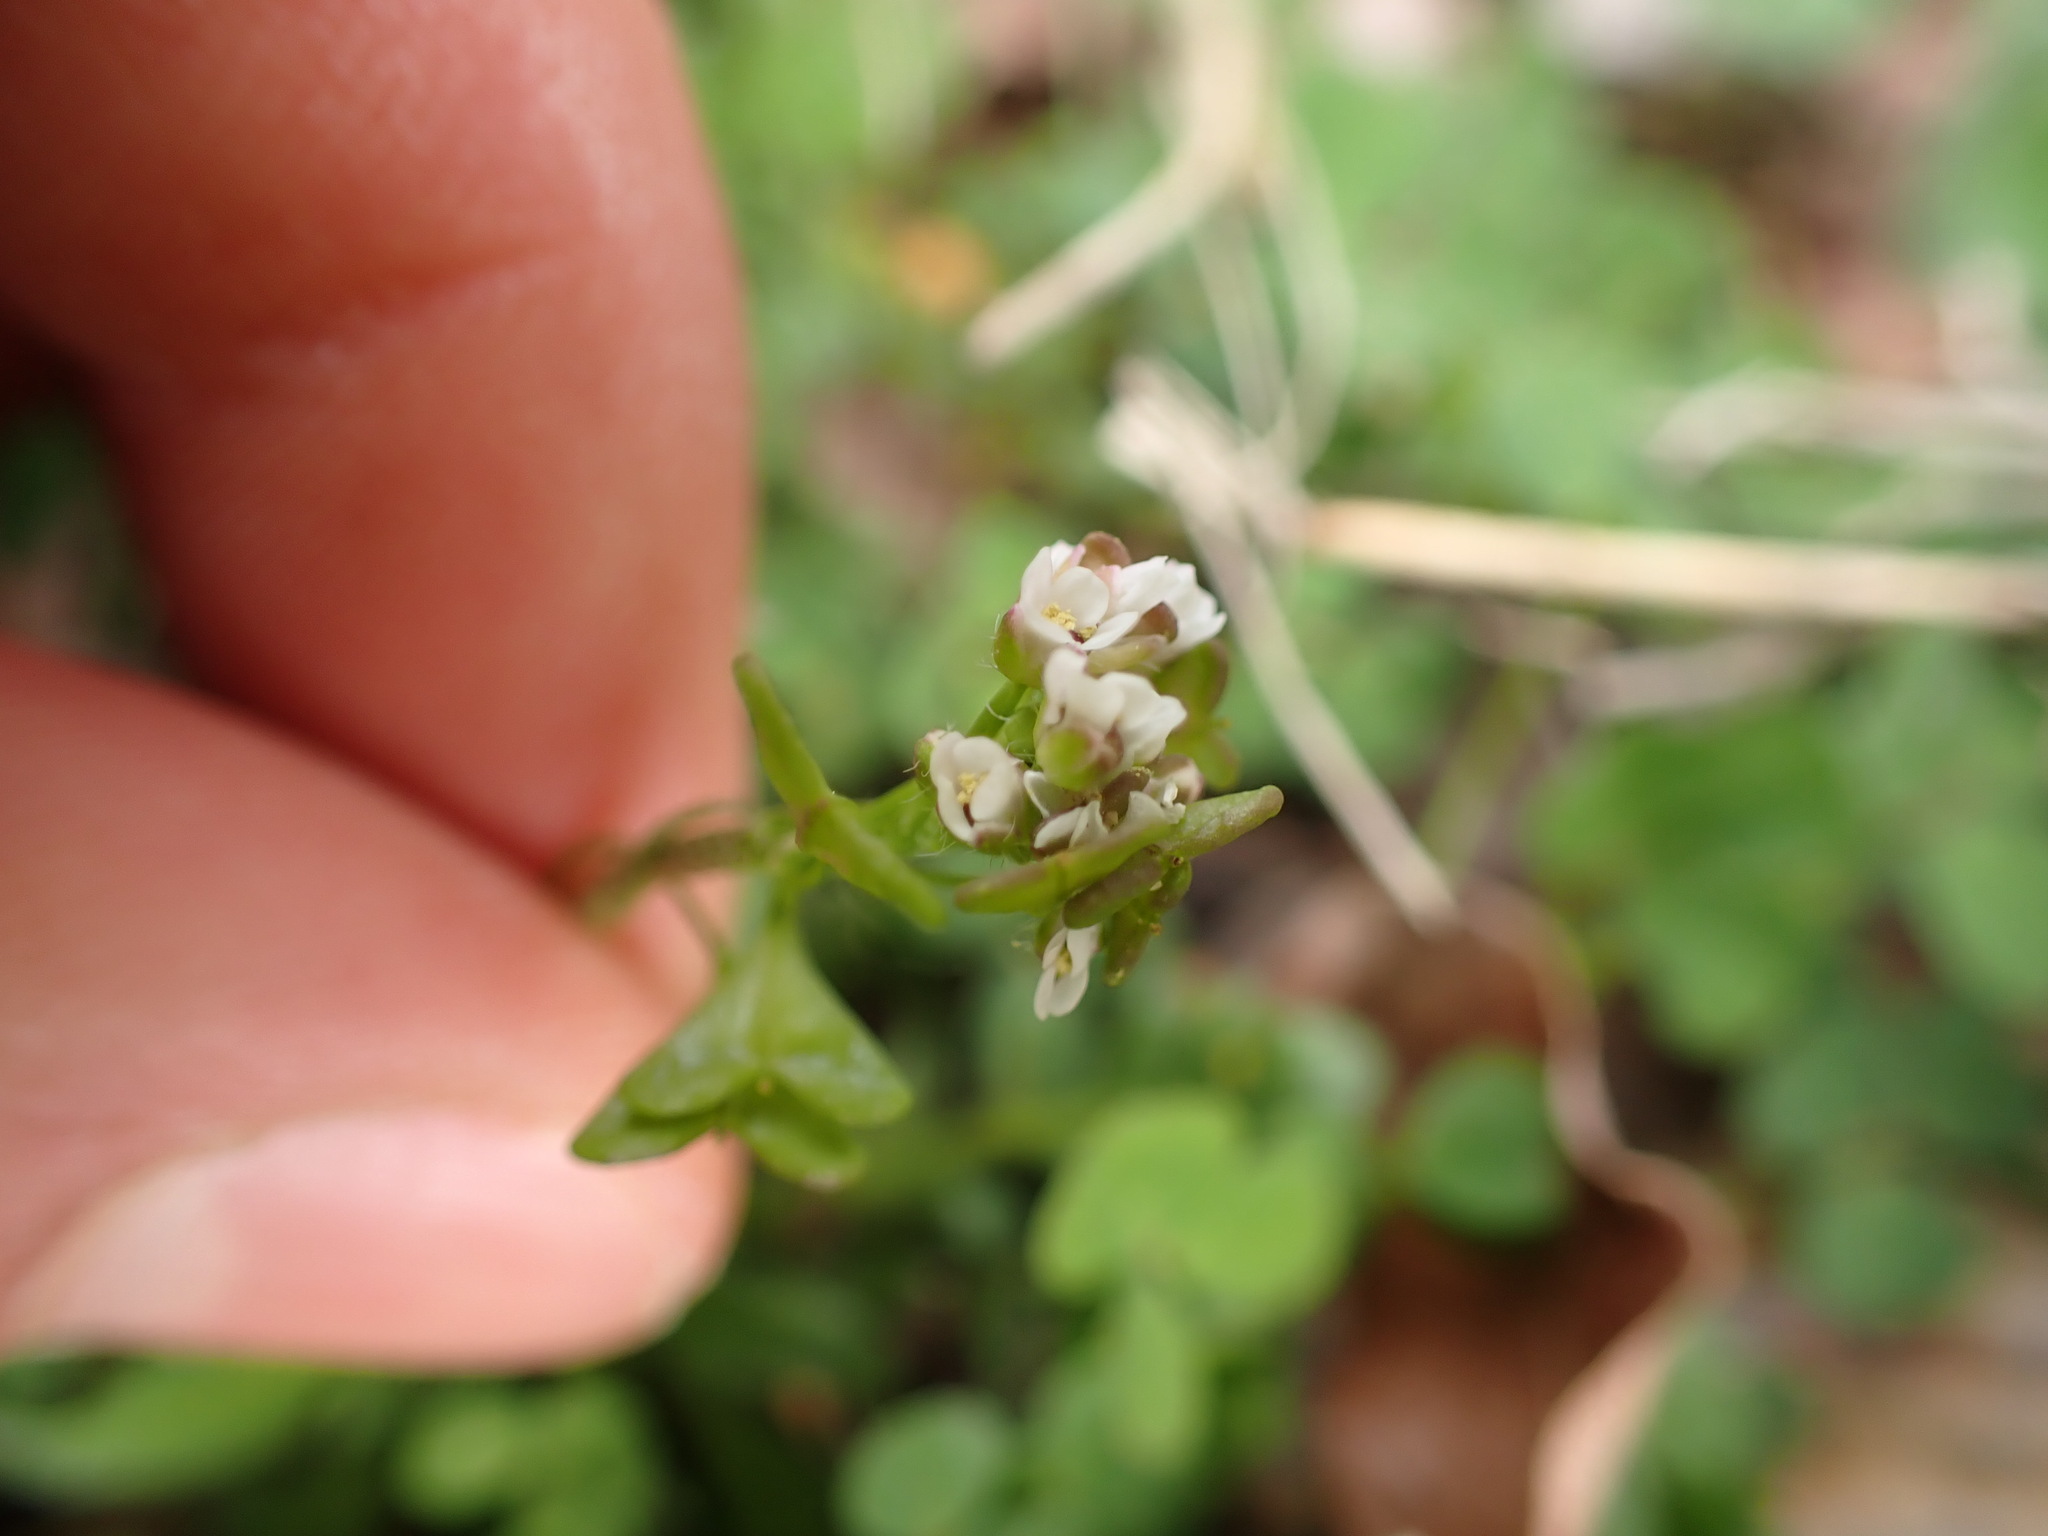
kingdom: Plantae
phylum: Tracheophyta
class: Magnoliopsida
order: Brassicales
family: Brassicaceae
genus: Capsella
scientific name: Capsella bursa-pastoris
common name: Shepherd's purse
